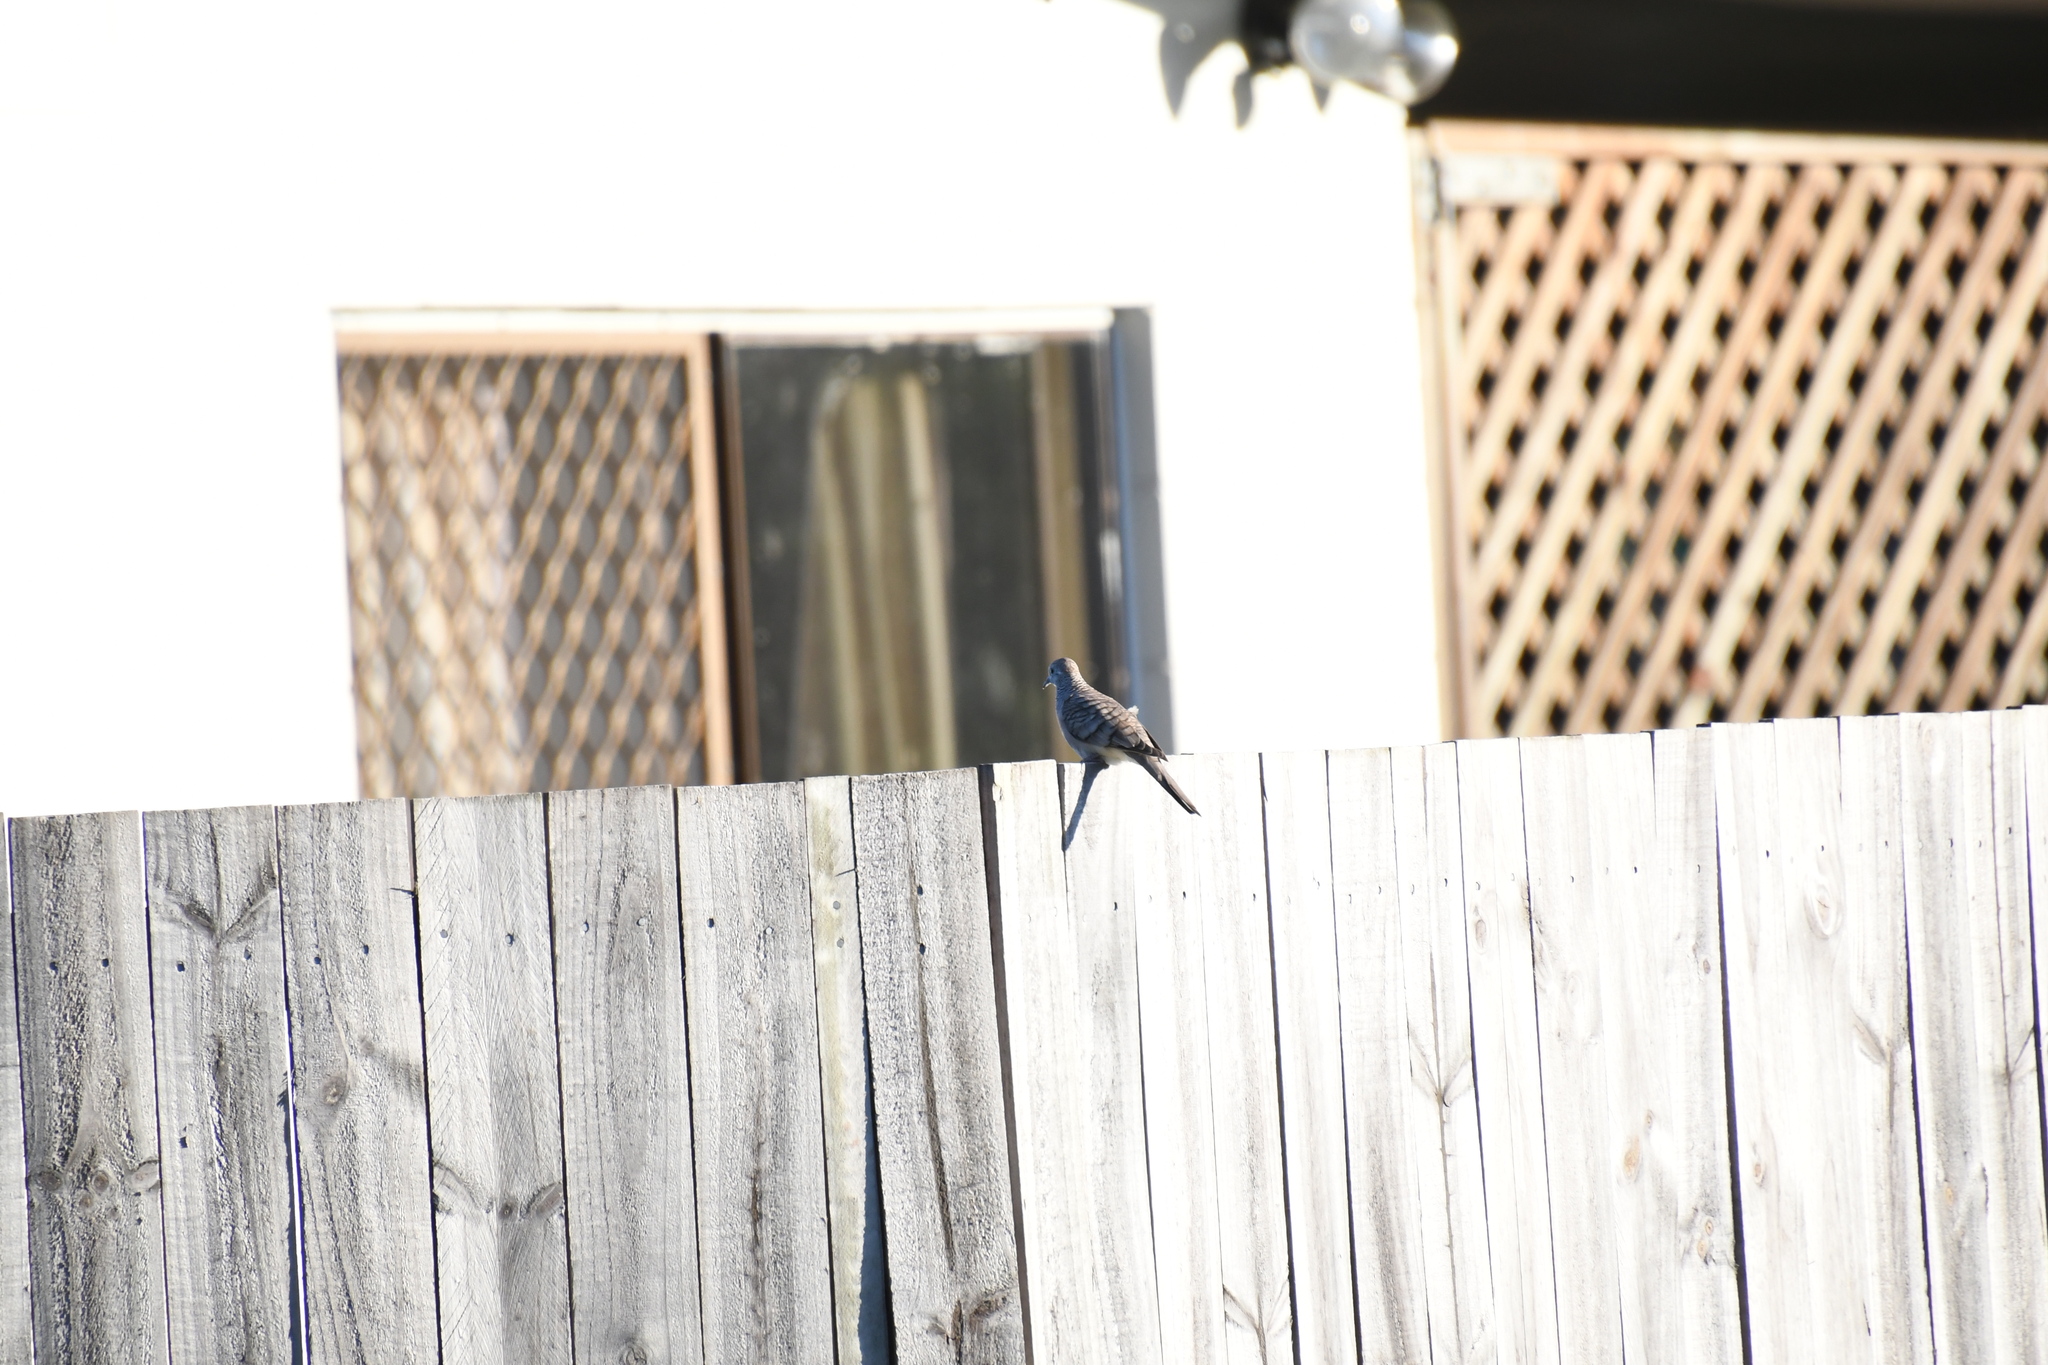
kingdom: Animalia
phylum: Chordata
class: Aves
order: Columbiformes
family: Columbidae
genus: Geopelia
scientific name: Geopelia placida
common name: Peaceful dove
